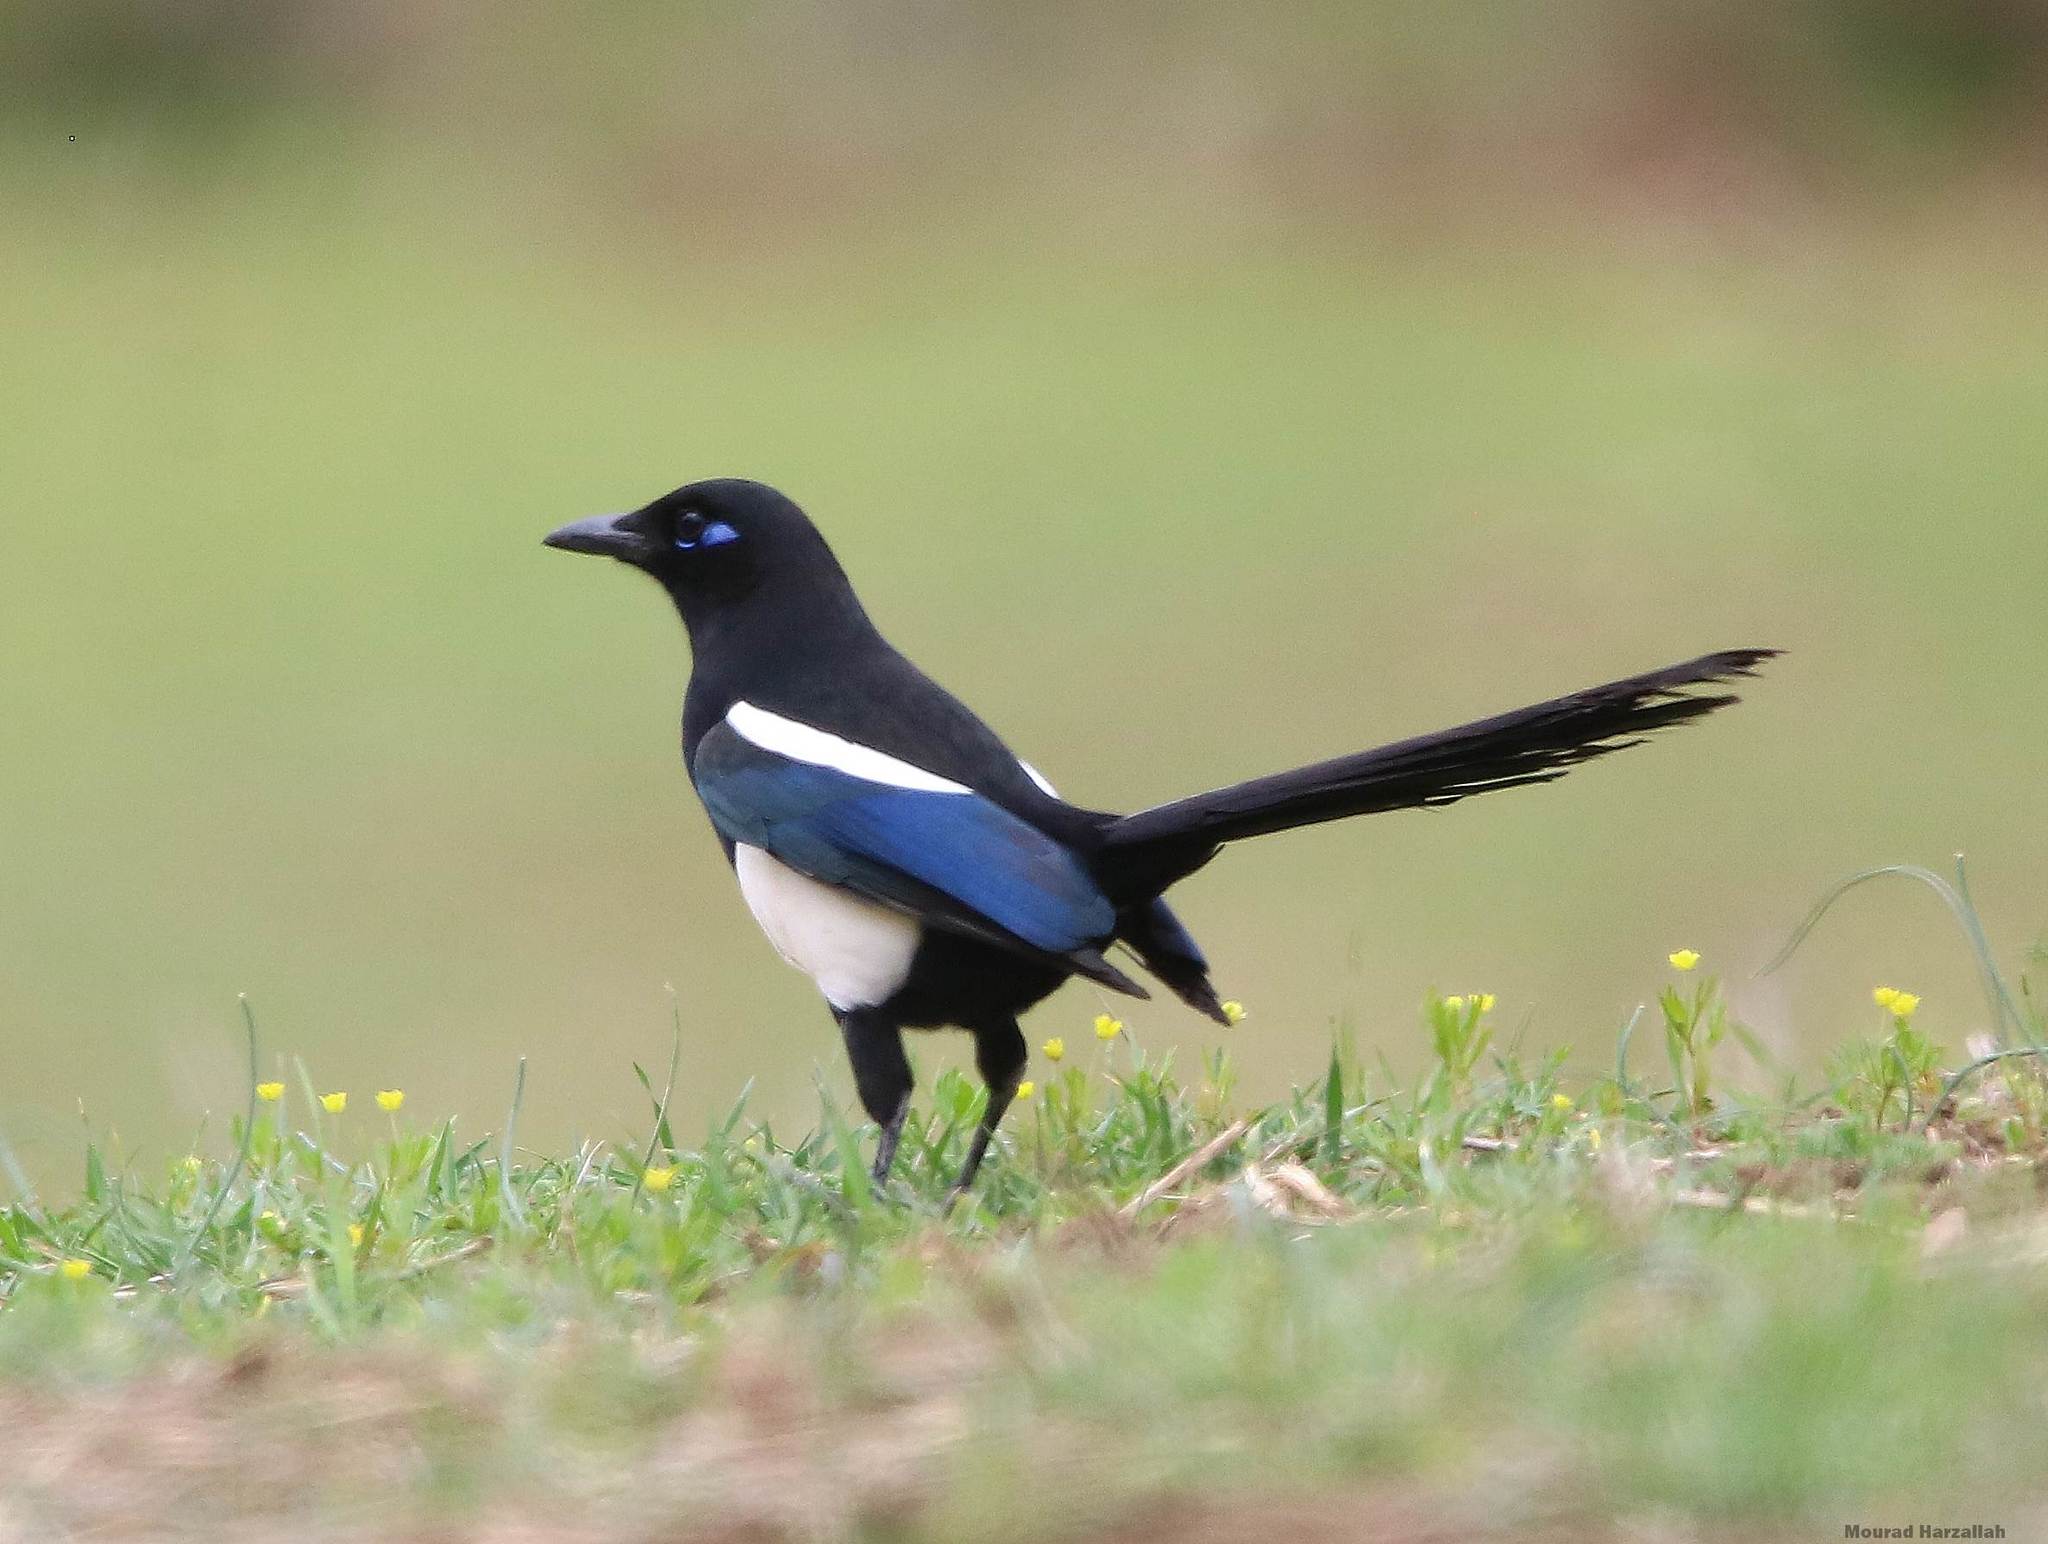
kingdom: Animalia
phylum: Chordata
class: Aves
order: Passeriformes
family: Corvidae
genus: Pica
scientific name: Pica mauritanica
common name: Maghreb magpie
